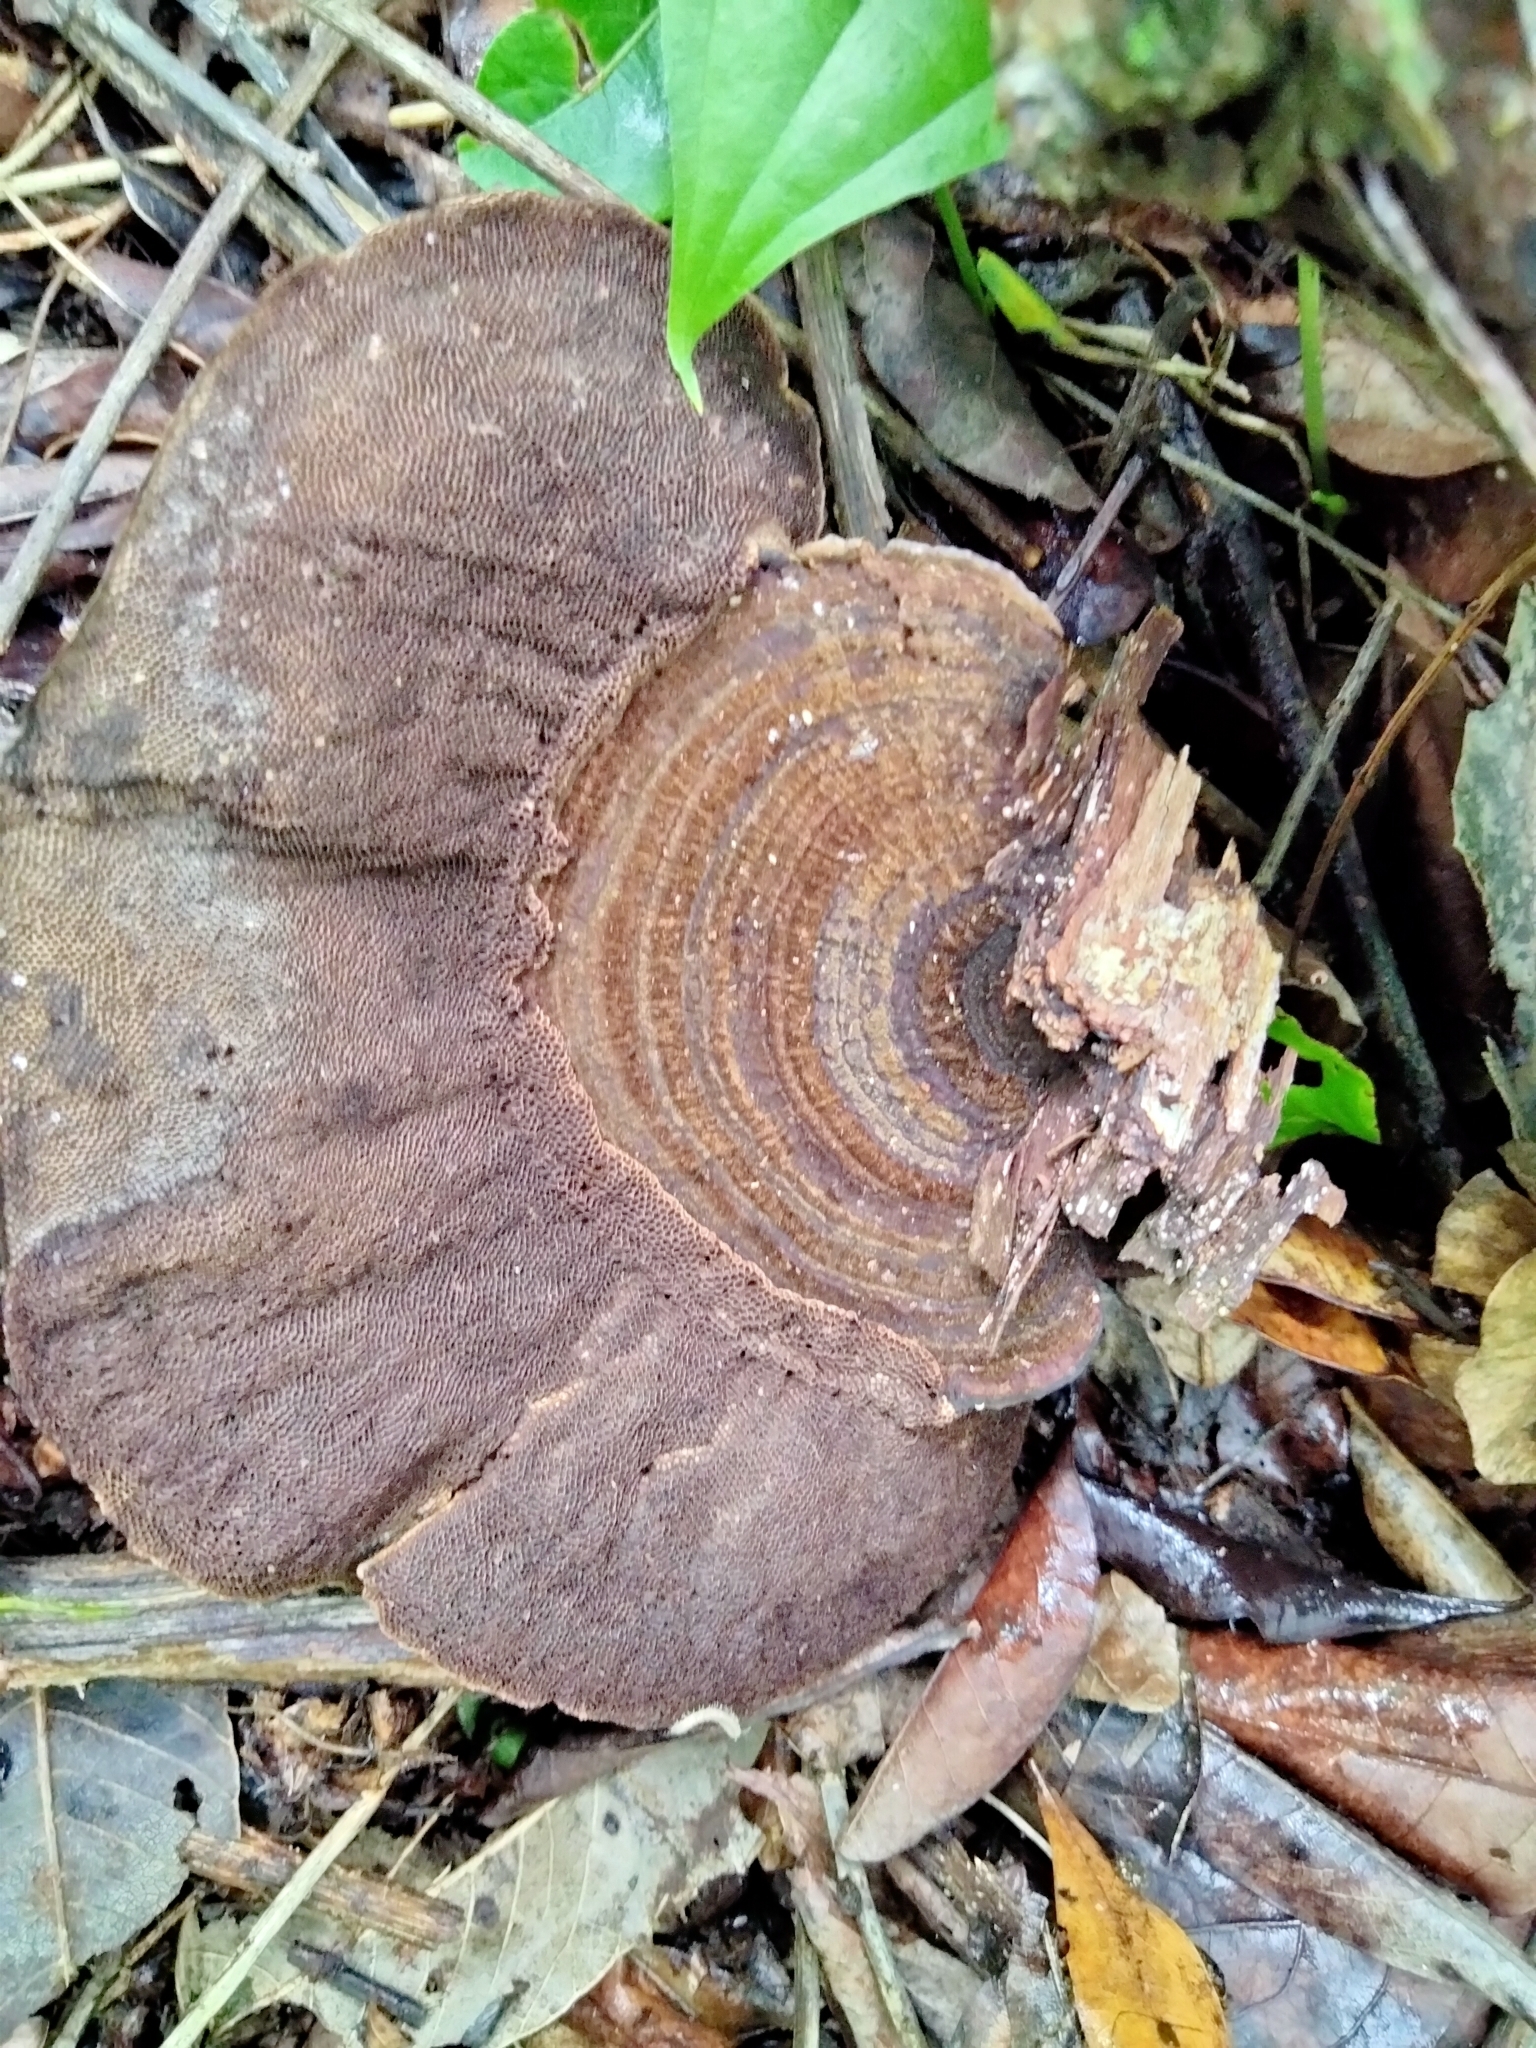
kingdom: Fungi
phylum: Basidiomycota
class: Agaricomycetes
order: Polyporales
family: Polyporaceae
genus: Pseudofavolus
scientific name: Pseudofavolus tenuis
